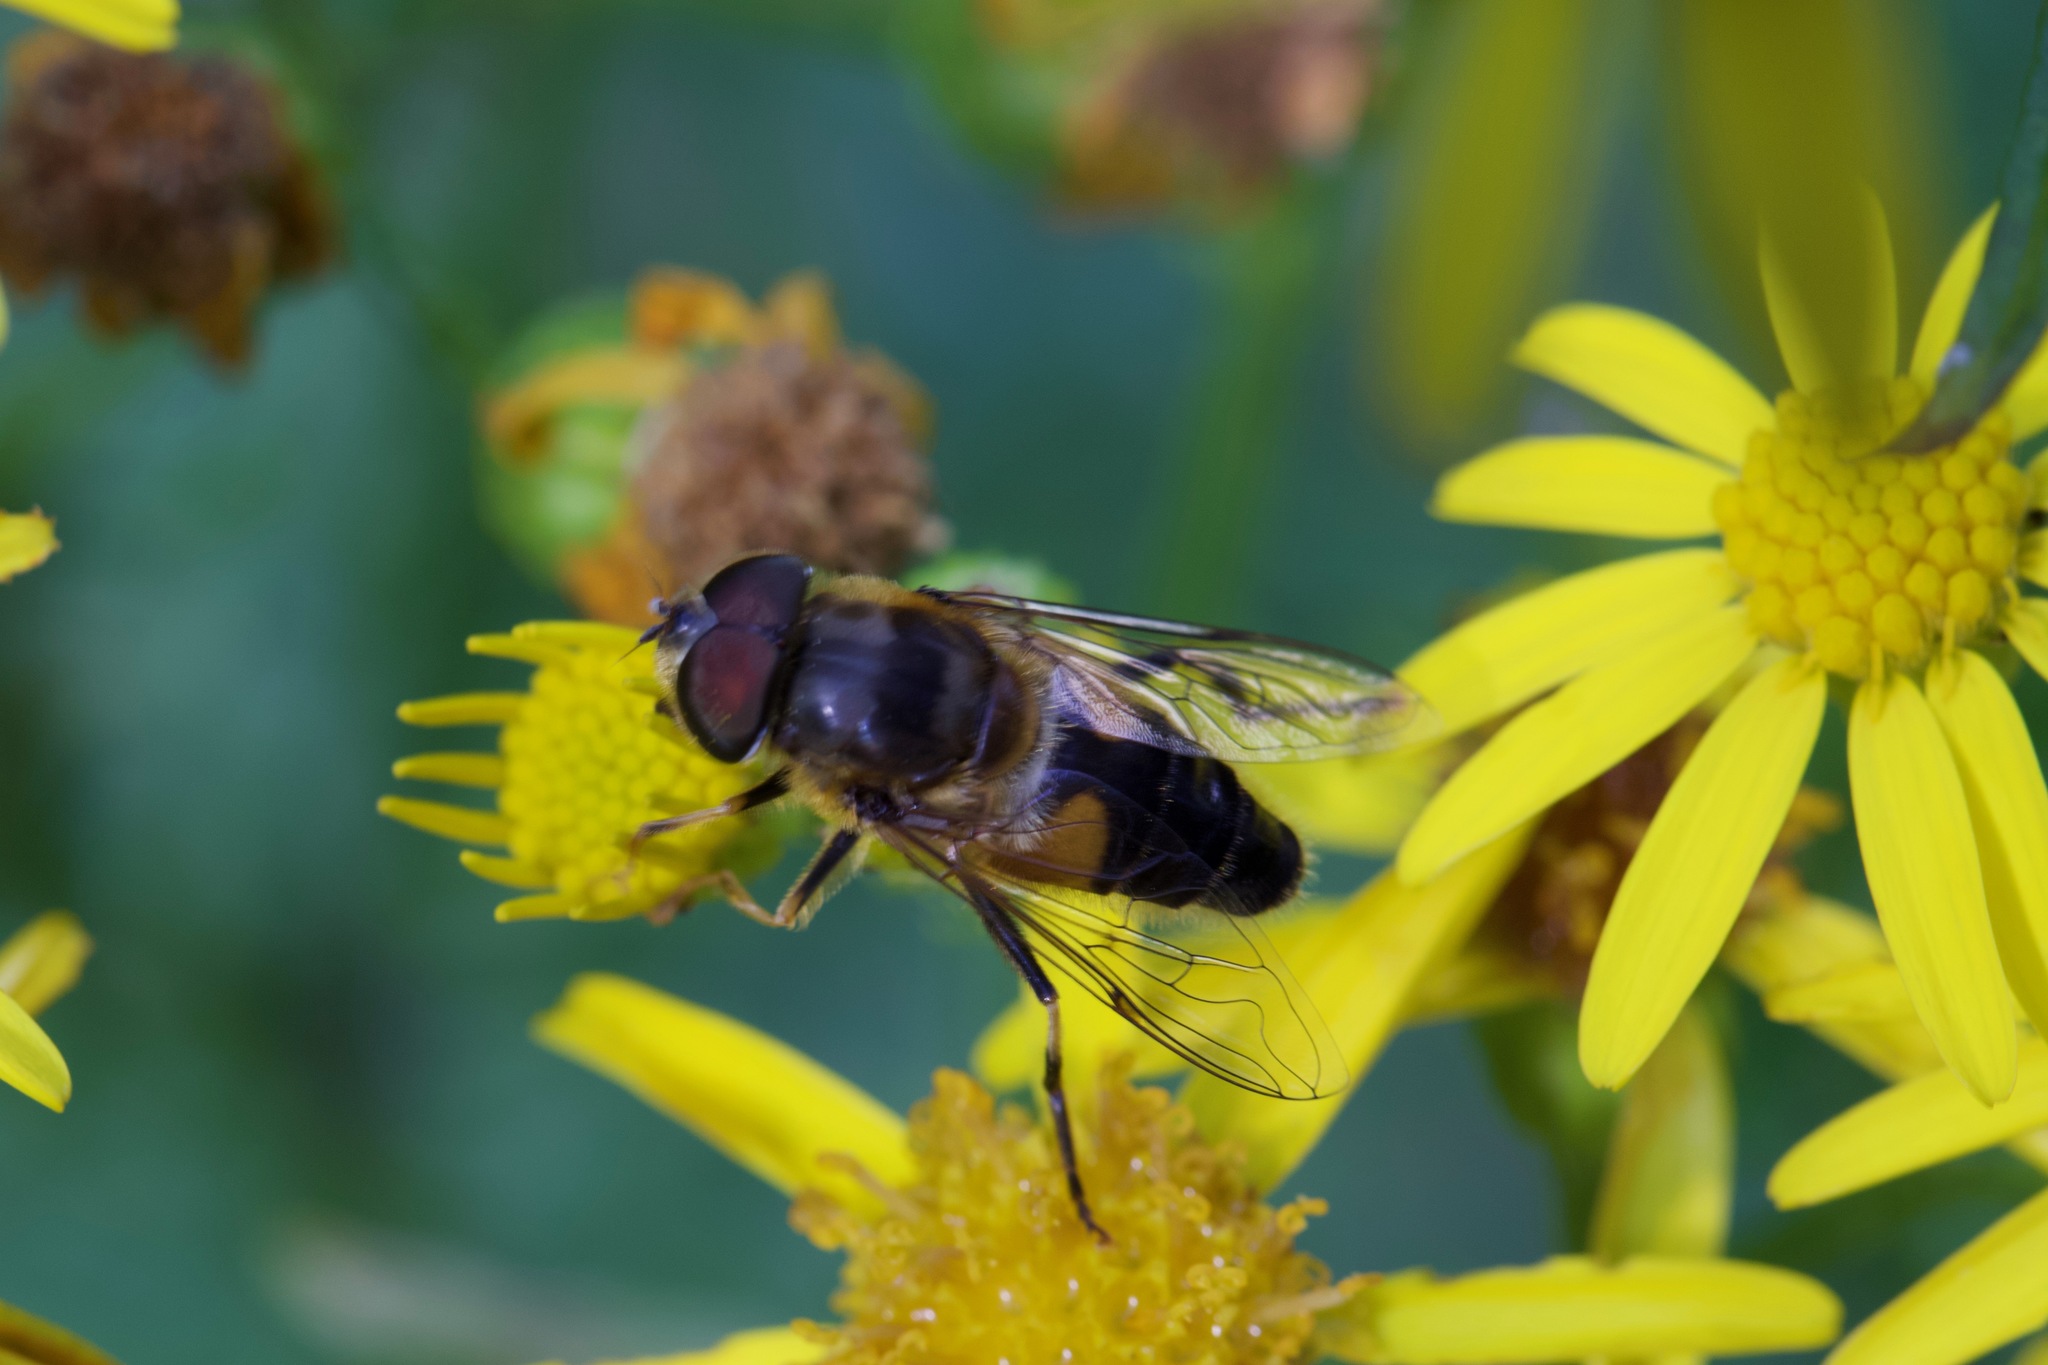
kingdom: Animalia
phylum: Arthropoda
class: Insecta
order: Diptera
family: Syrphidae
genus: Eristalis
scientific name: Eristalis pertinax
